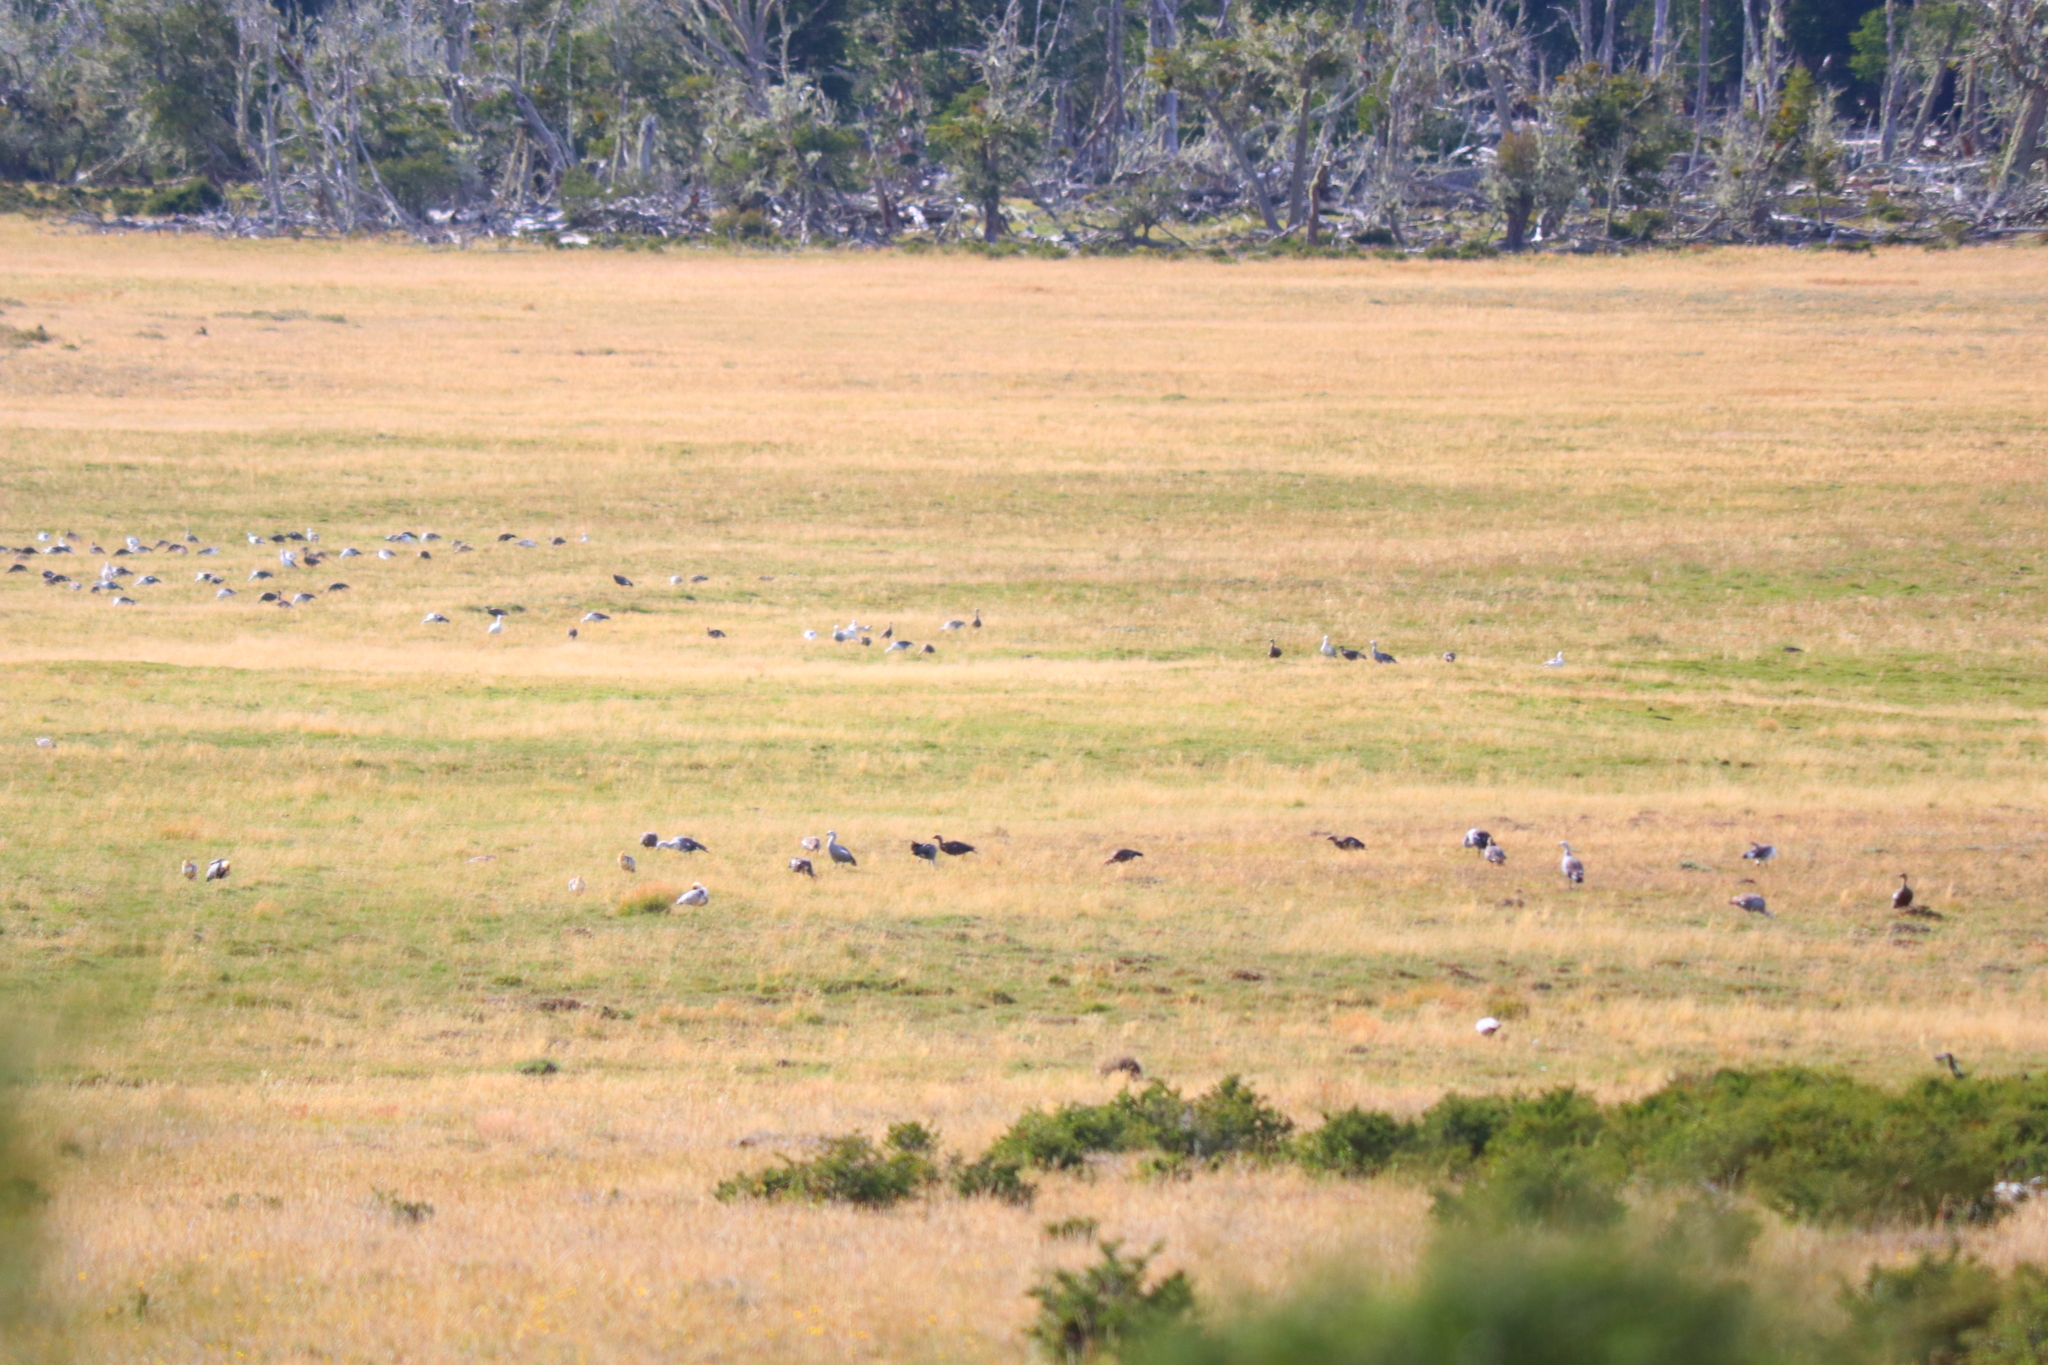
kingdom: Animalia
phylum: Chordata
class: Aves
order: Anseriformes
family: Anatidae
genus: Chloephaga
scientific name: Chloephaga picta
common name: Upland goose
